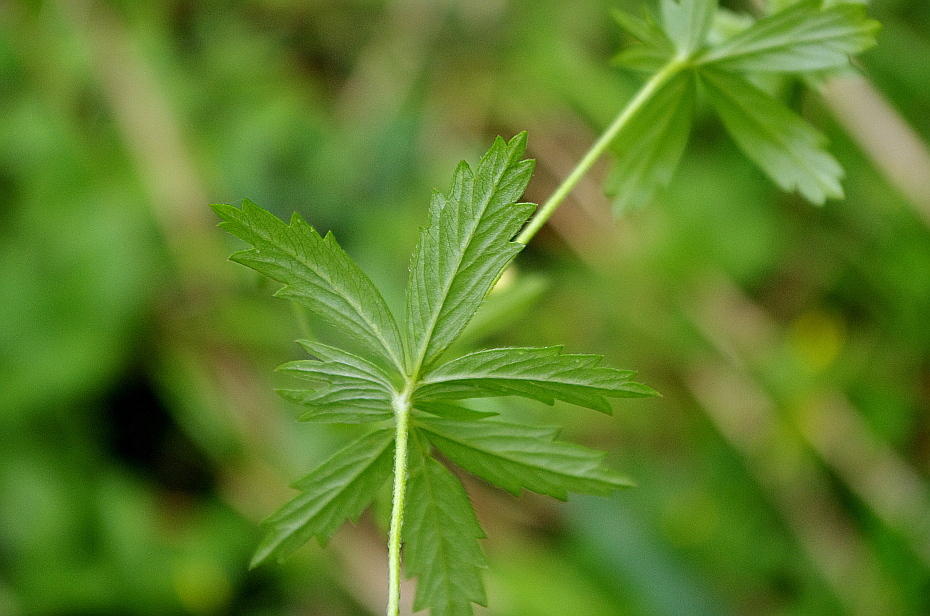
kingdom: Plantae
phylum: Tracheophyta
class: Magnoliopsida
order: Rosales
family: Rosaceae
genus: Potentilla
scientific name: Potentilla erecta
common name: Tormentil
